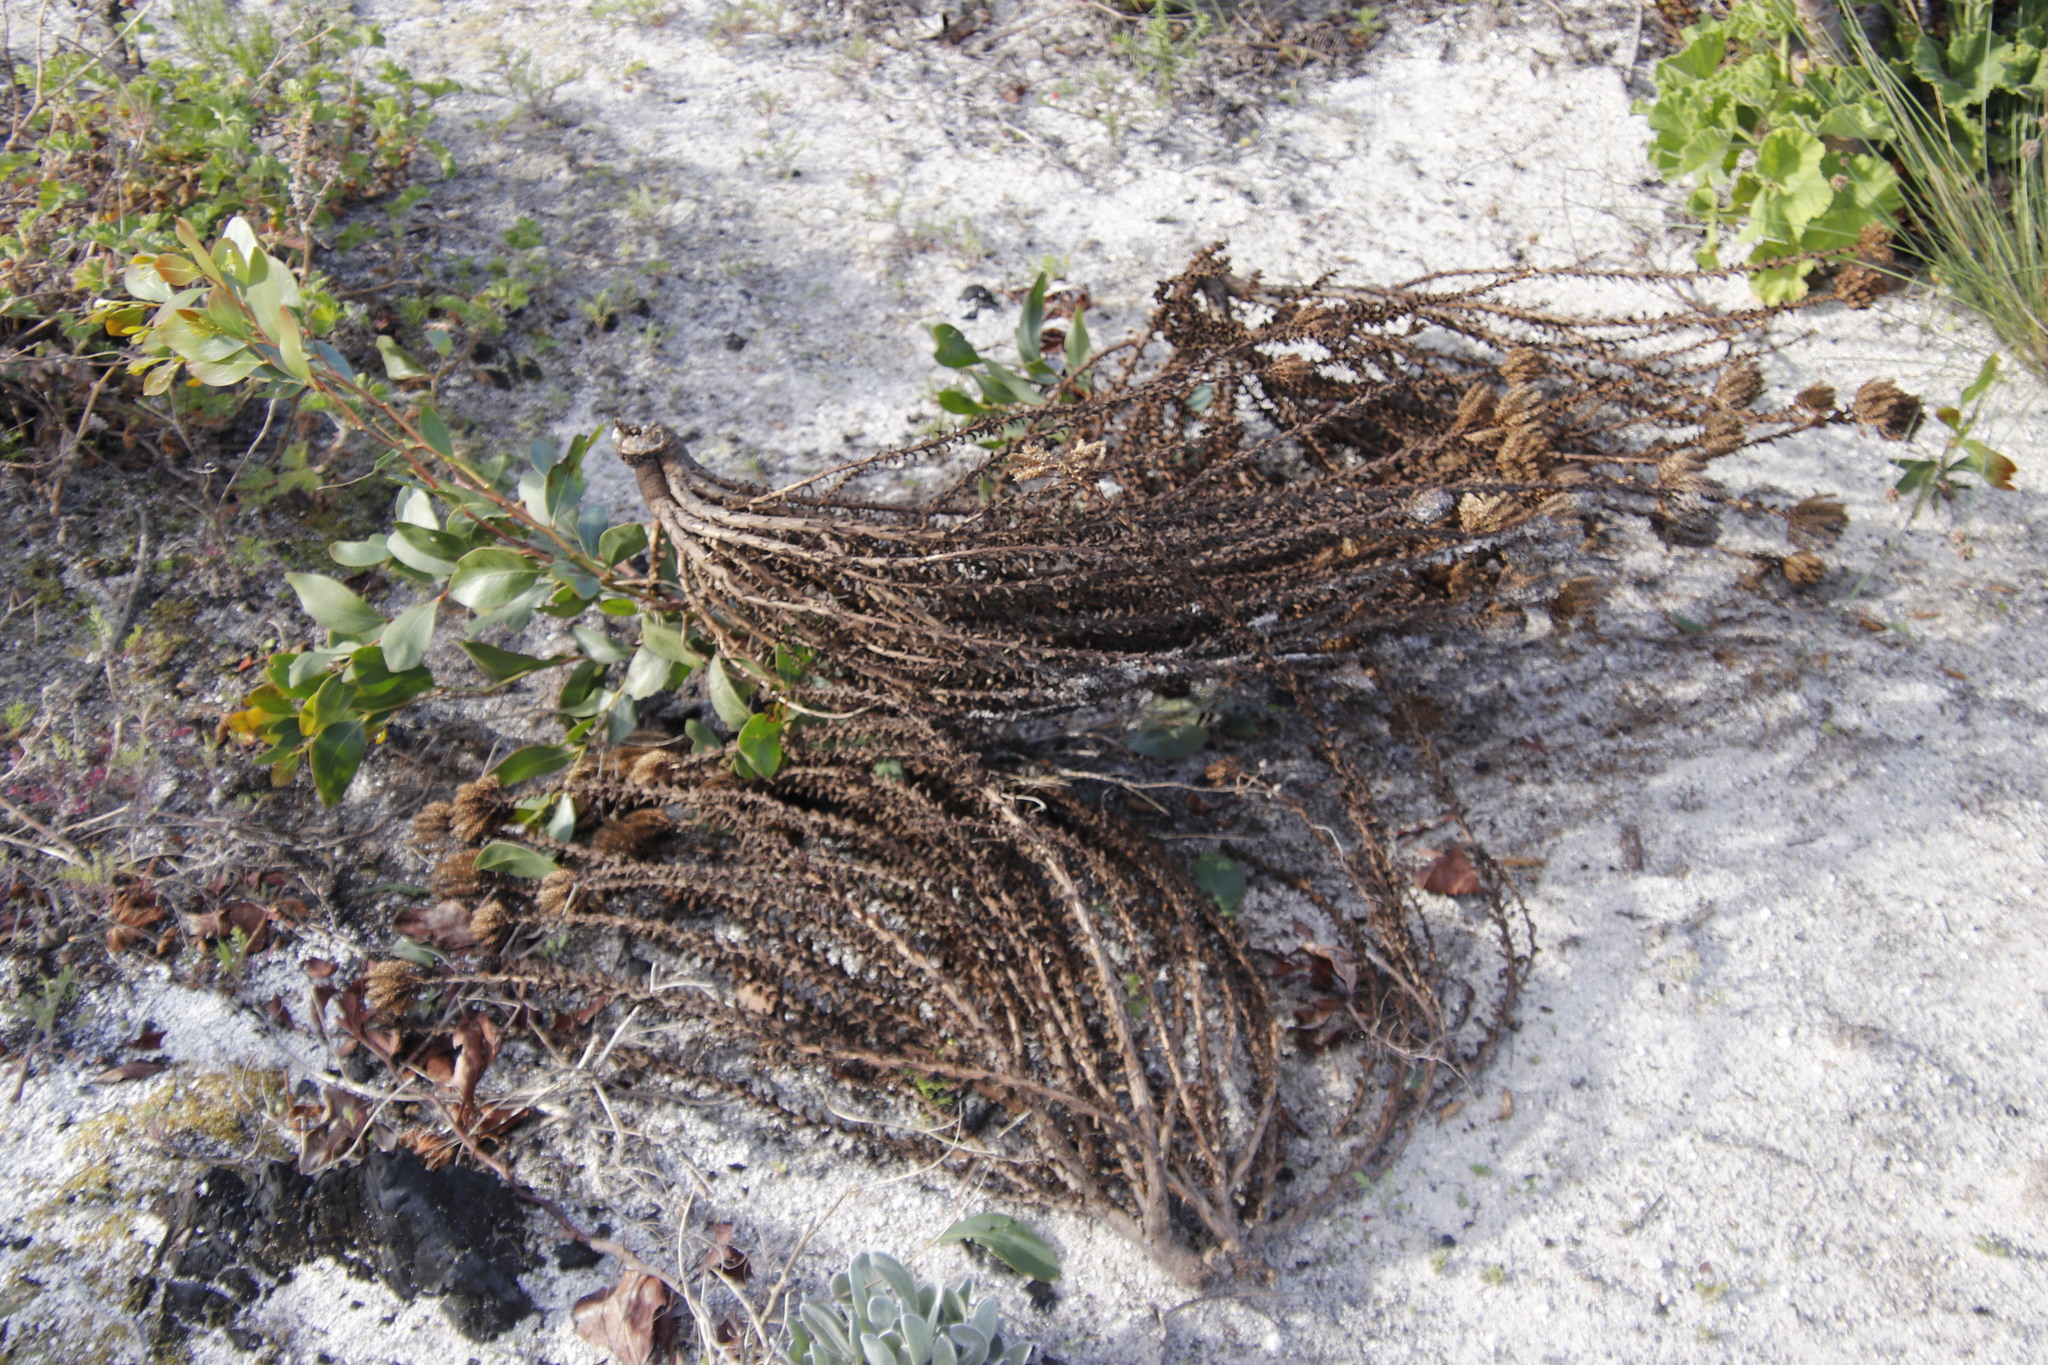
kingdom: Plantae
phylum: Tracheophyta
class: Magnoliopsida
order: Lamiales
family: Scrophulariaceae
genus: Pseudoselago
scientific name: Pseudoselago serrata
